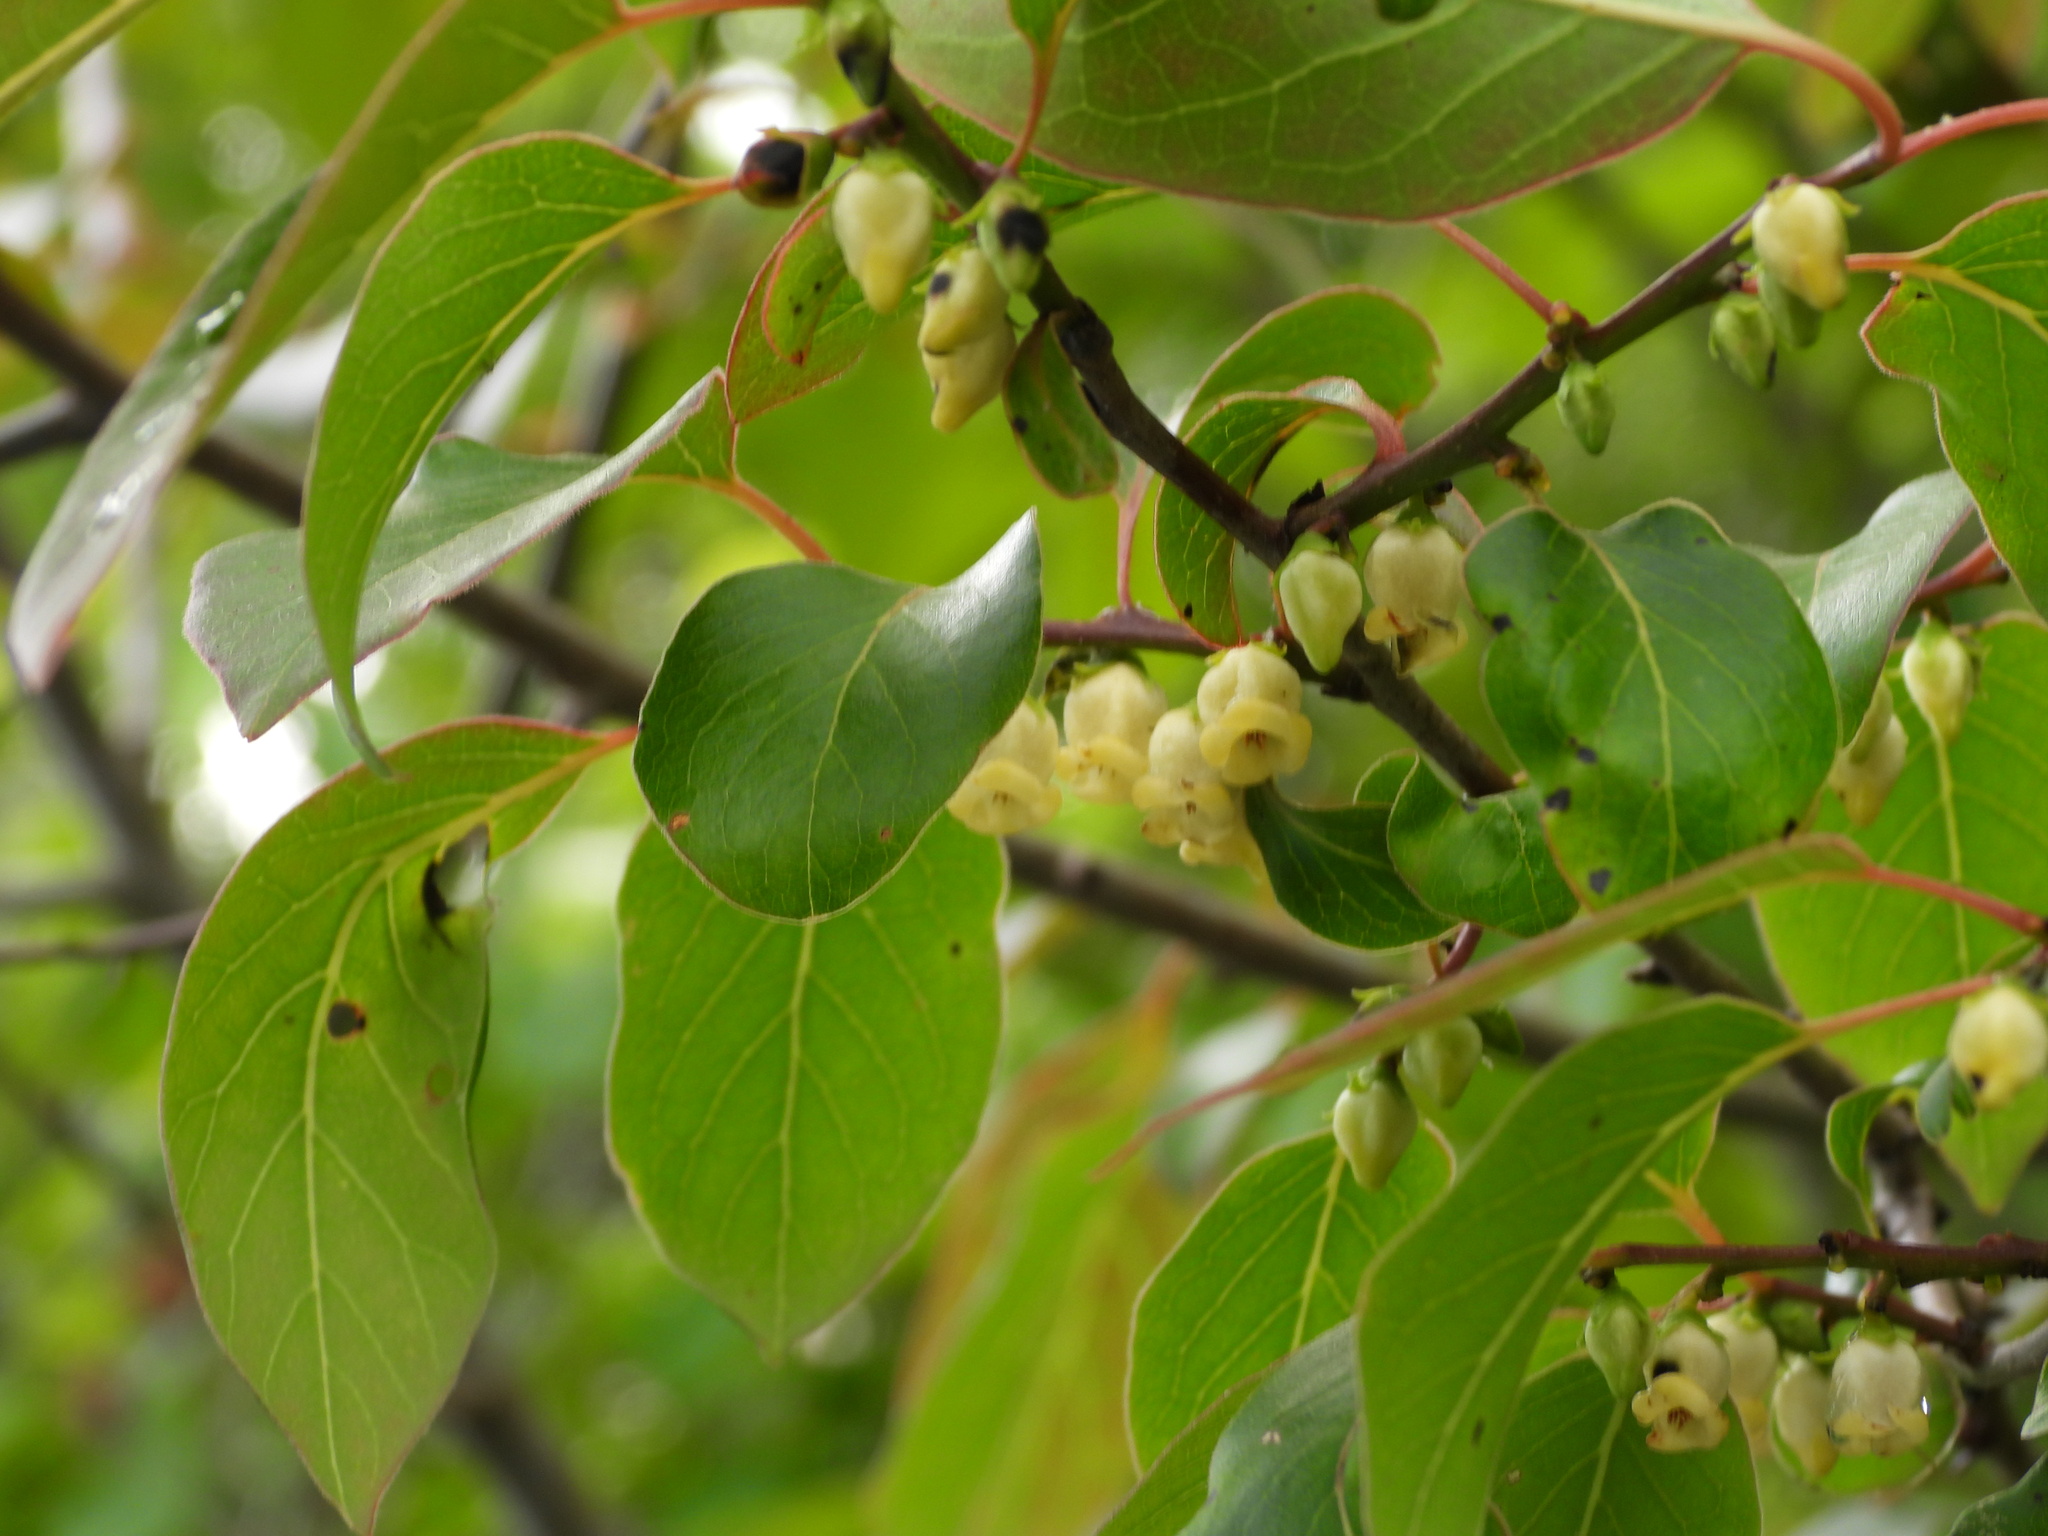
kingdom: Plantae
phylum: Tracheophyta
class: Magnoliopsida
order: Ericales
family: Ebenaceae
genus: Diospyros
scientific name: Diospyros virginiana
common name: Persimmon
